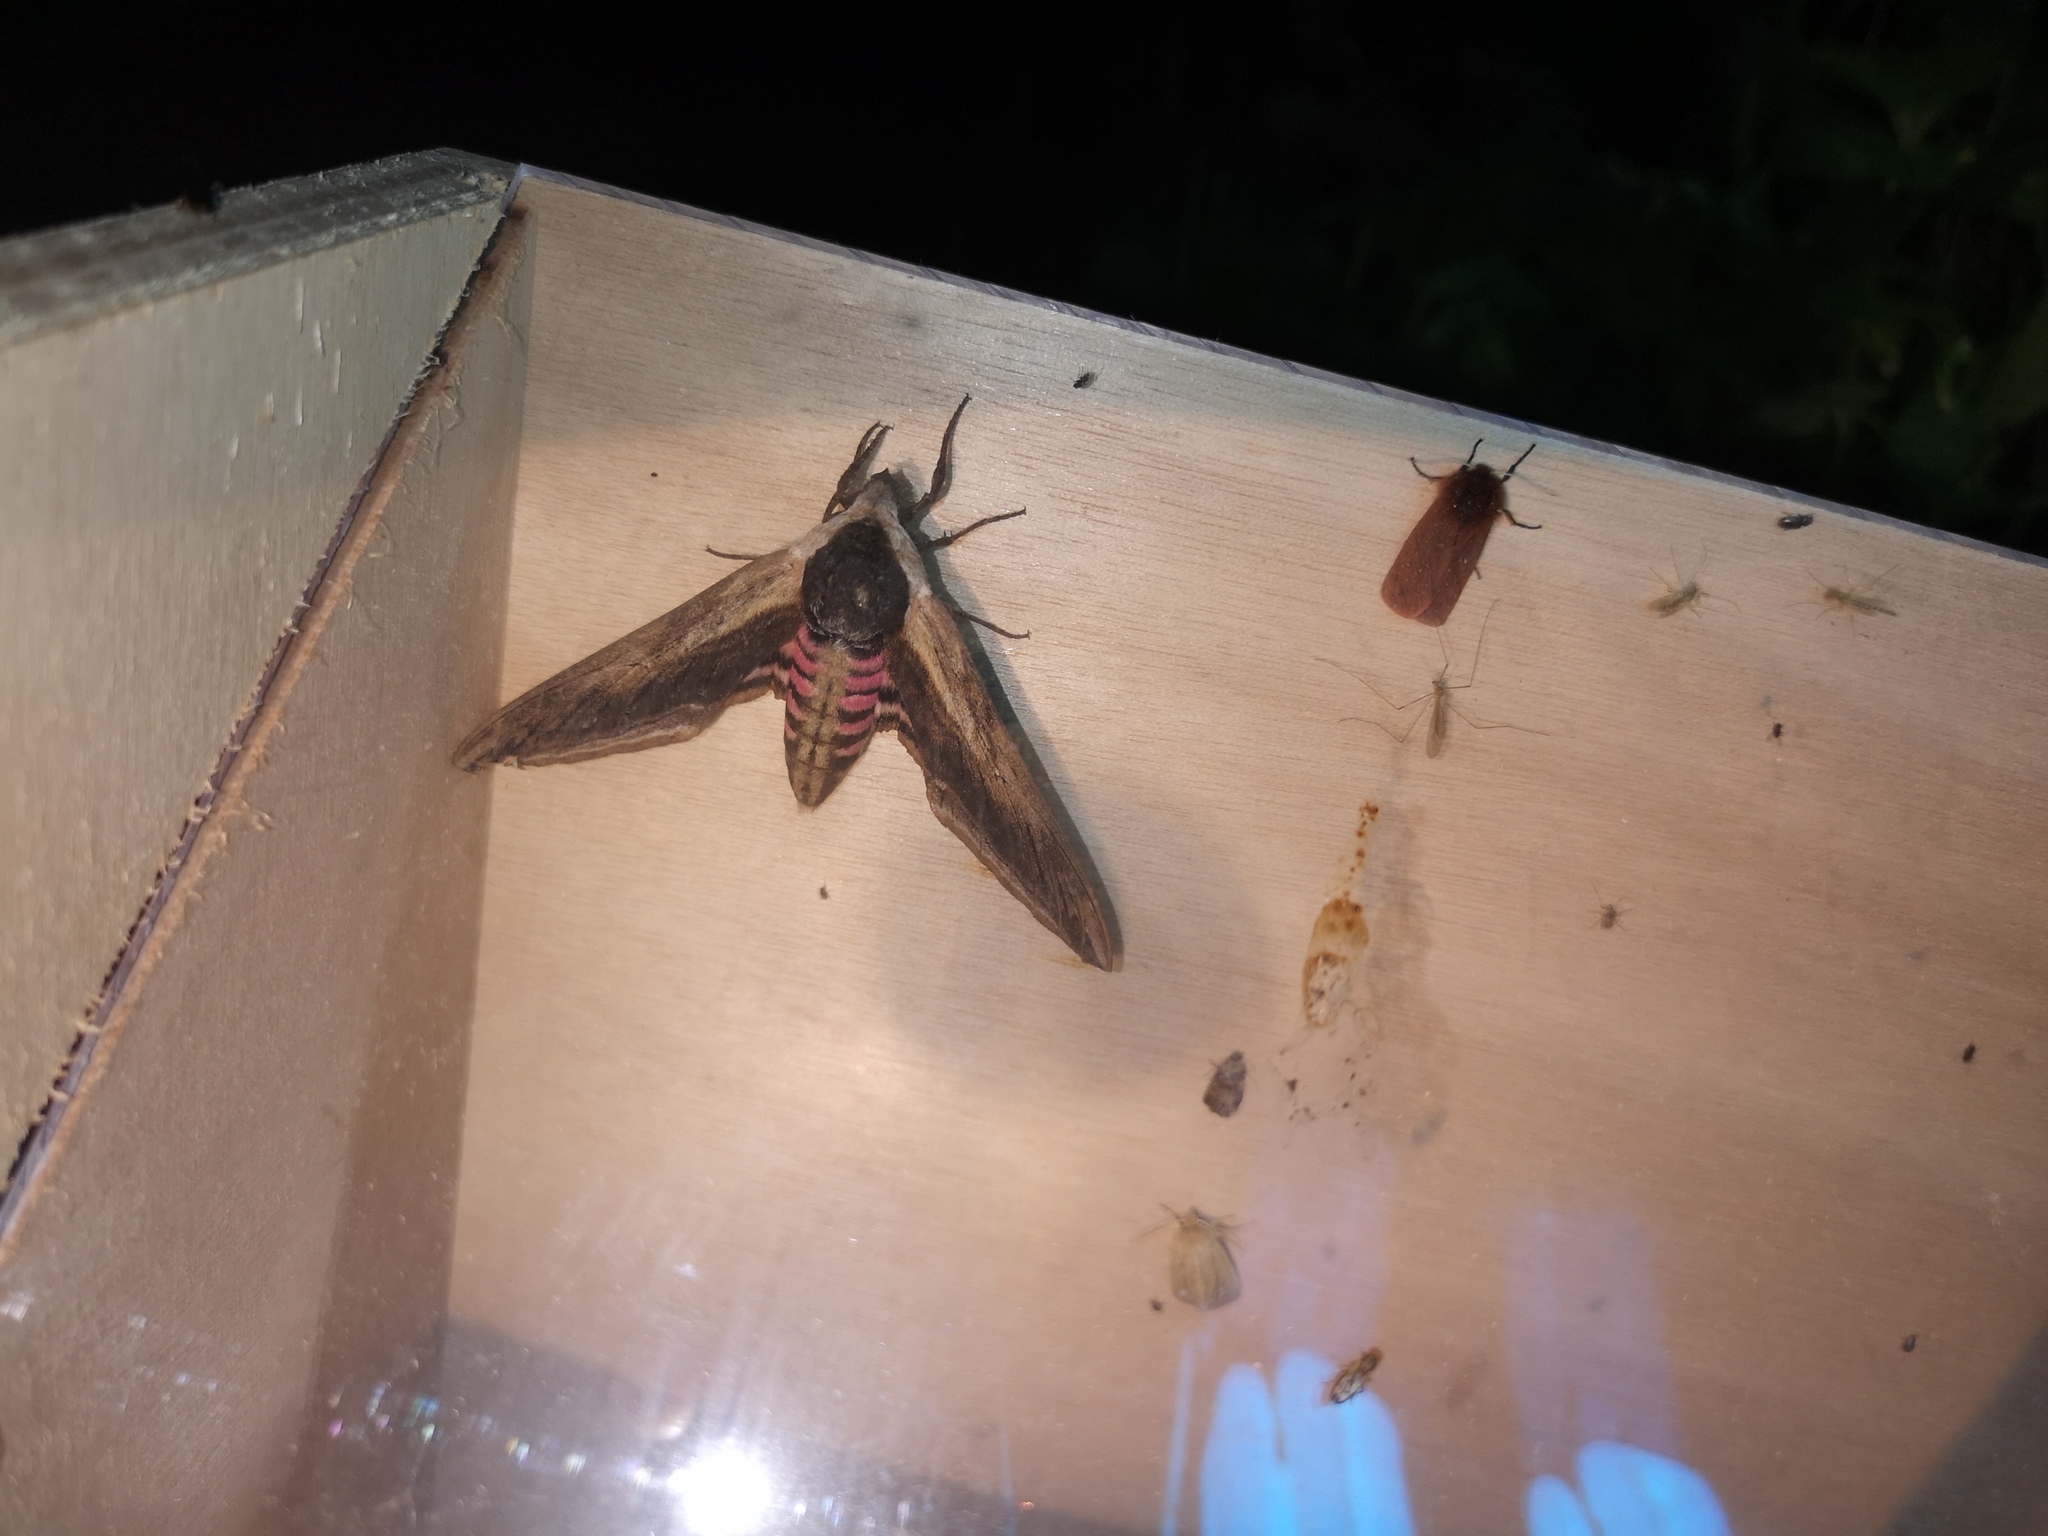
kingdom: Animalia
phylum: Arthropoda
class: Insecta
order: Lepidoptera
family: Sphingidae
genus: Sphinx
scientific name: Sphinx ligustri
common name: Privet hawk-moth
